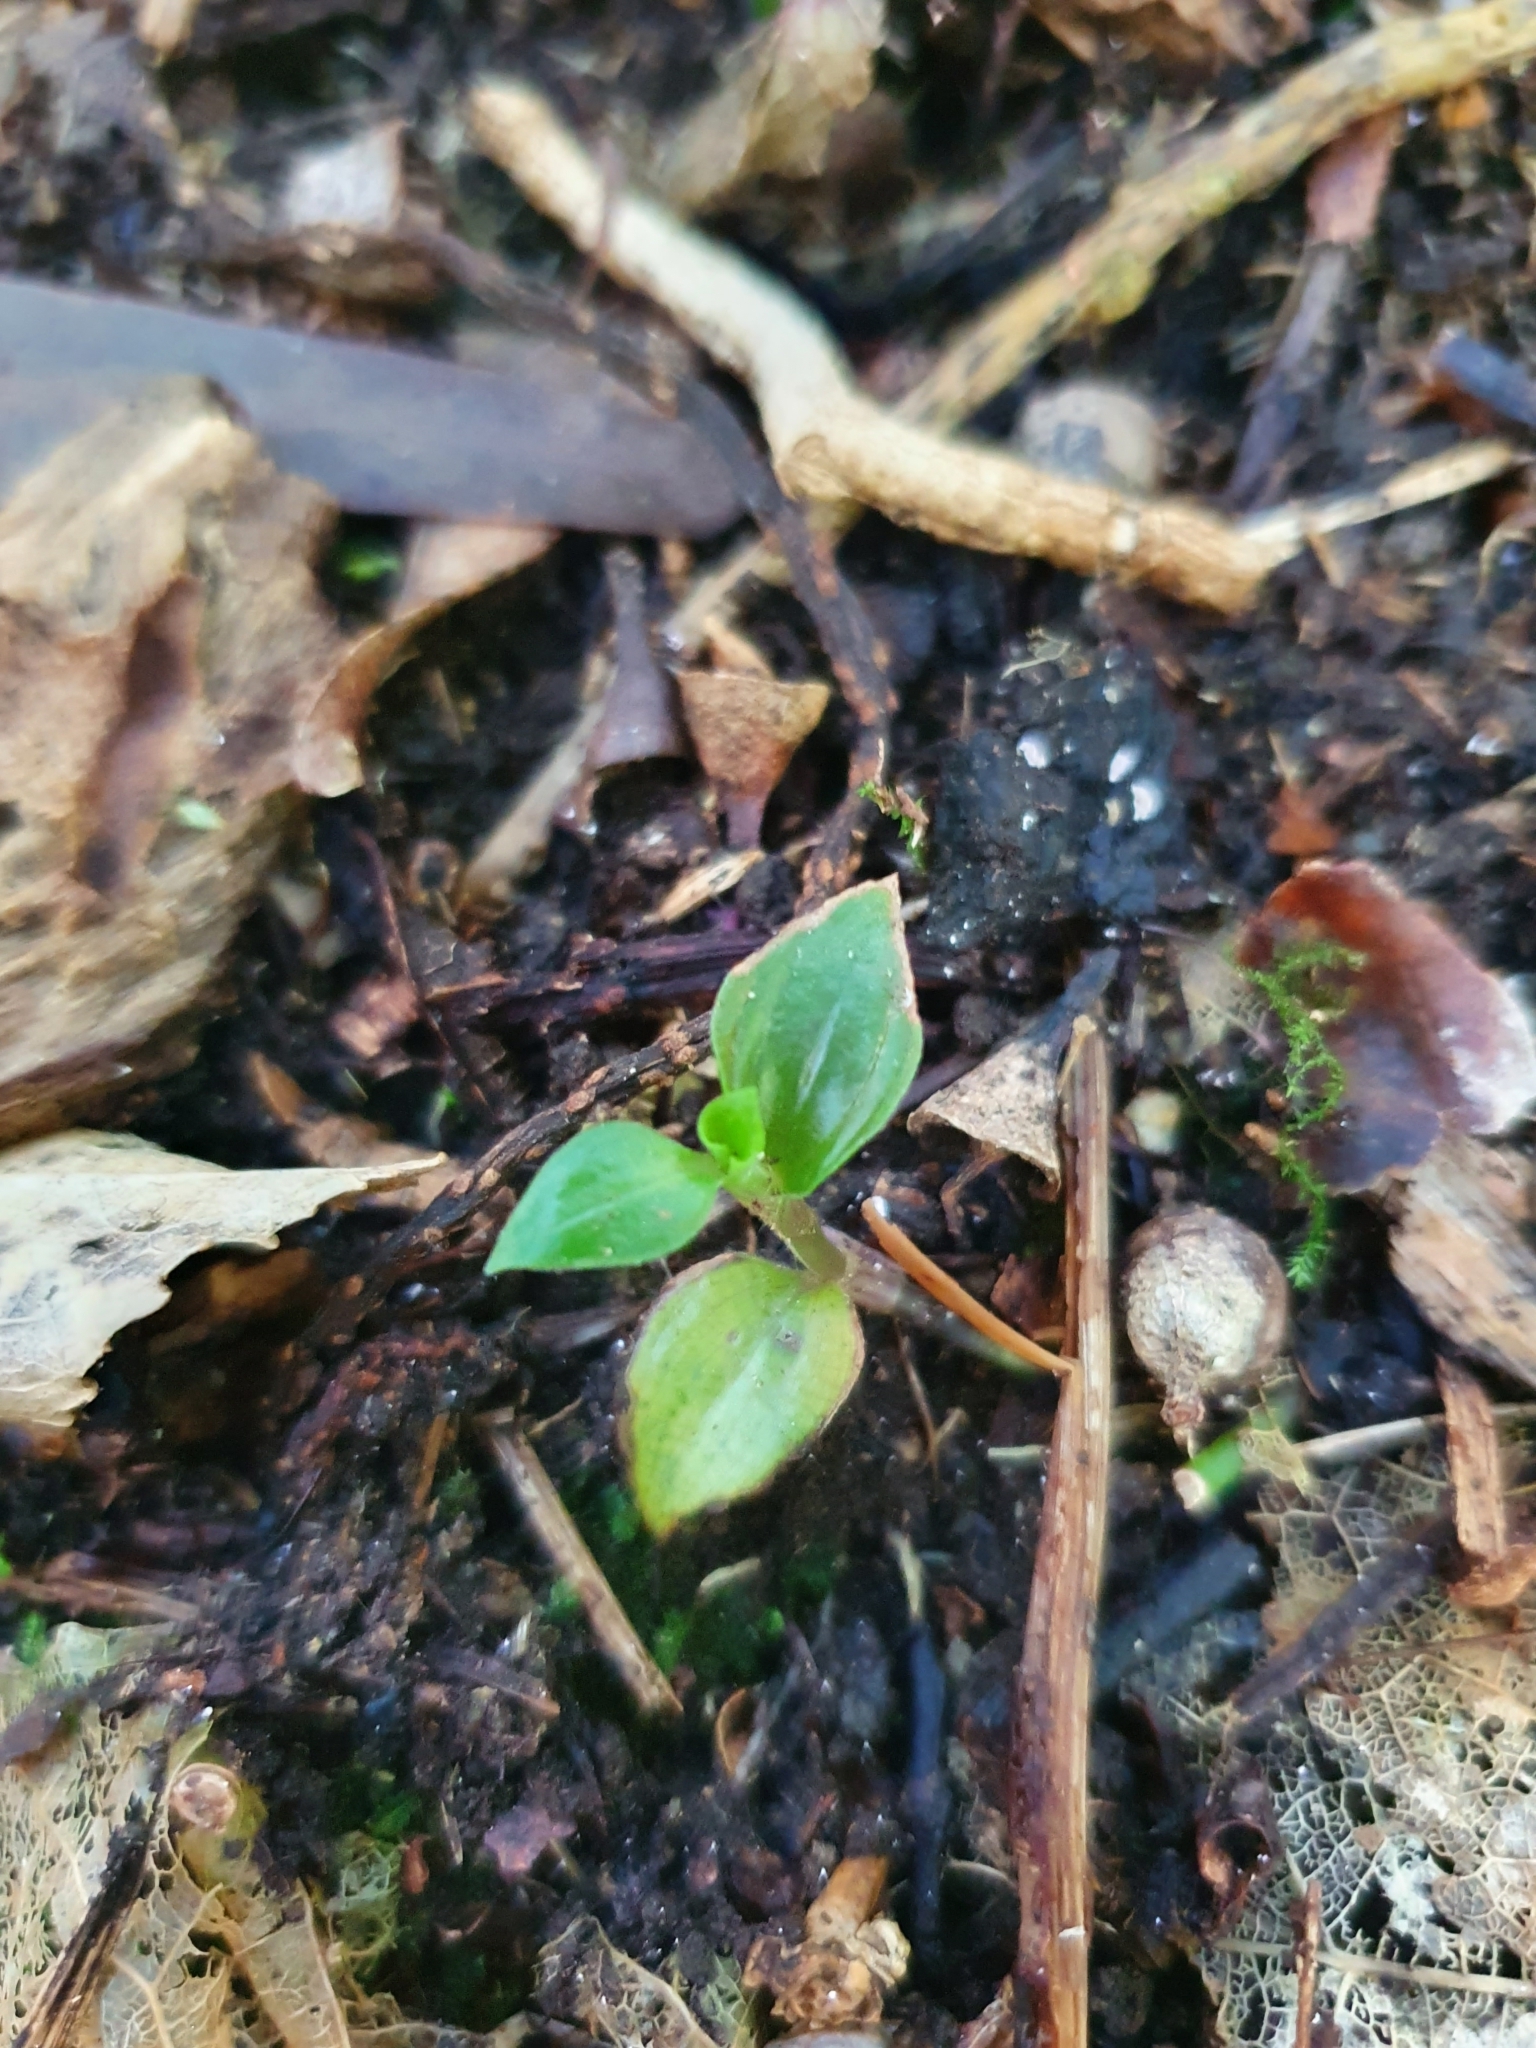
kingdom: Plantae
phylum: Tracheophyta
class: Liliopsida
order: Commelinales
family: Commelinaceae
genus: Tradescantia
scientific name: Tradescantia fluminensis
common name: Wandering-jew
